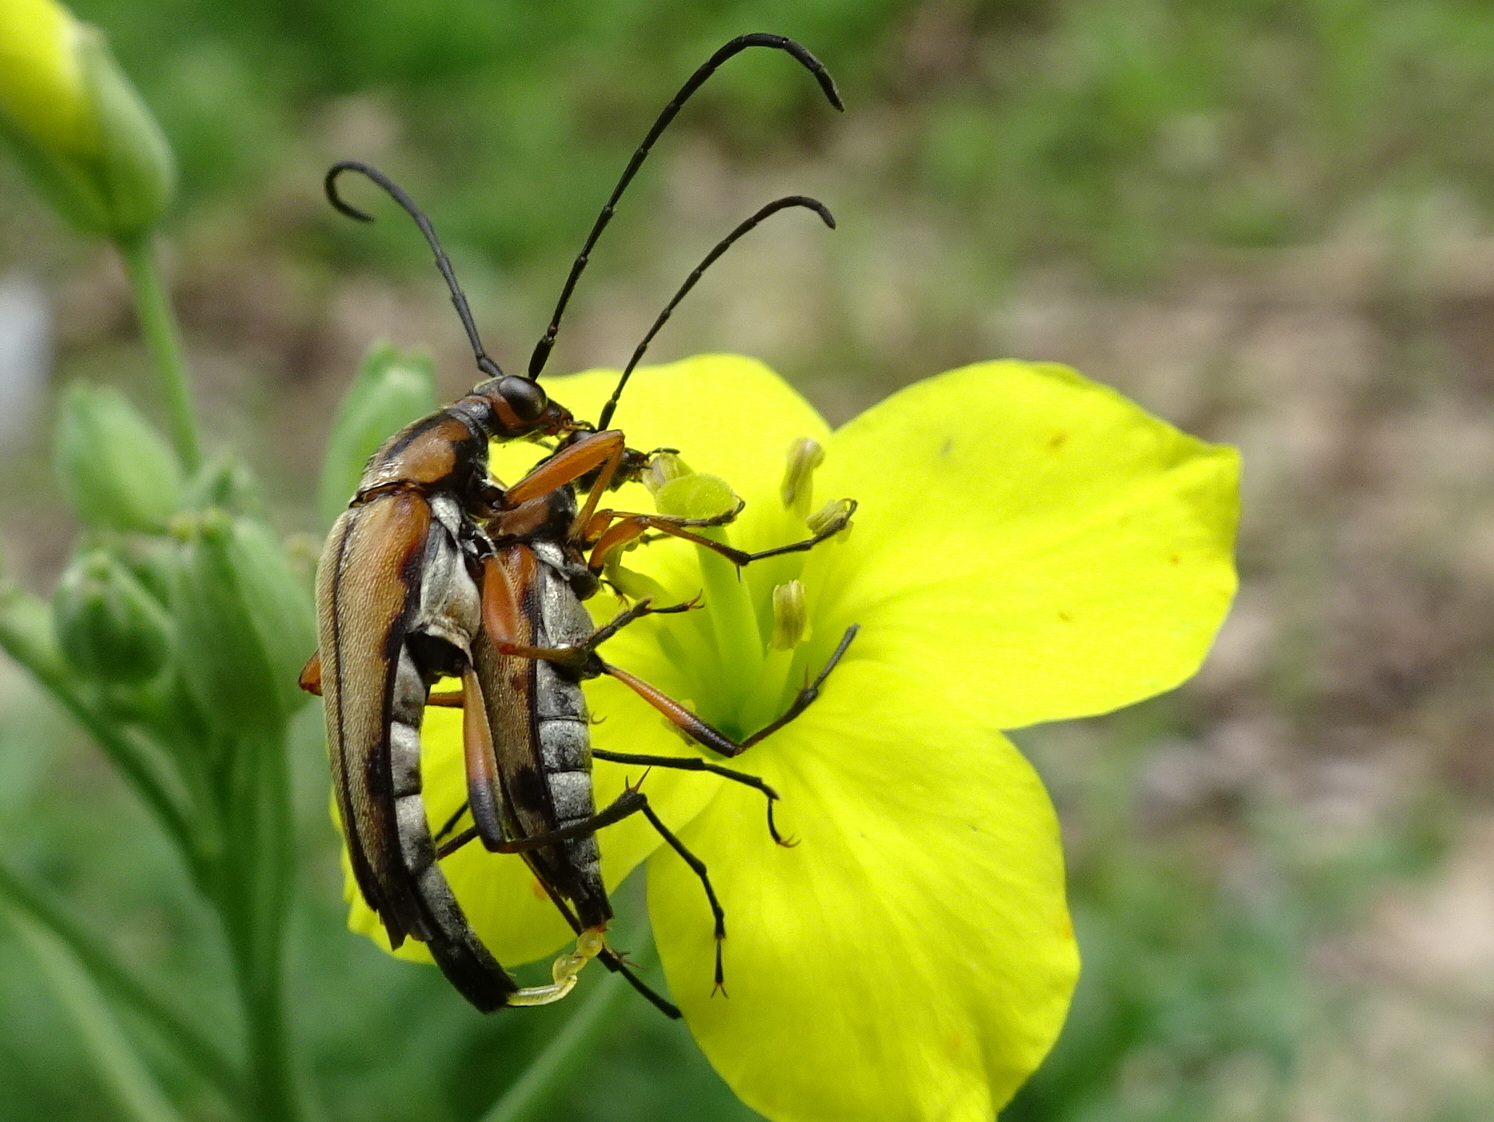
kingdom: Animalia
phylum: Arthropoda
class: Insecta
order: Coleoptera
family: Cerambycidae
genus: Strangalia
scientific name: Strangalia famelica
